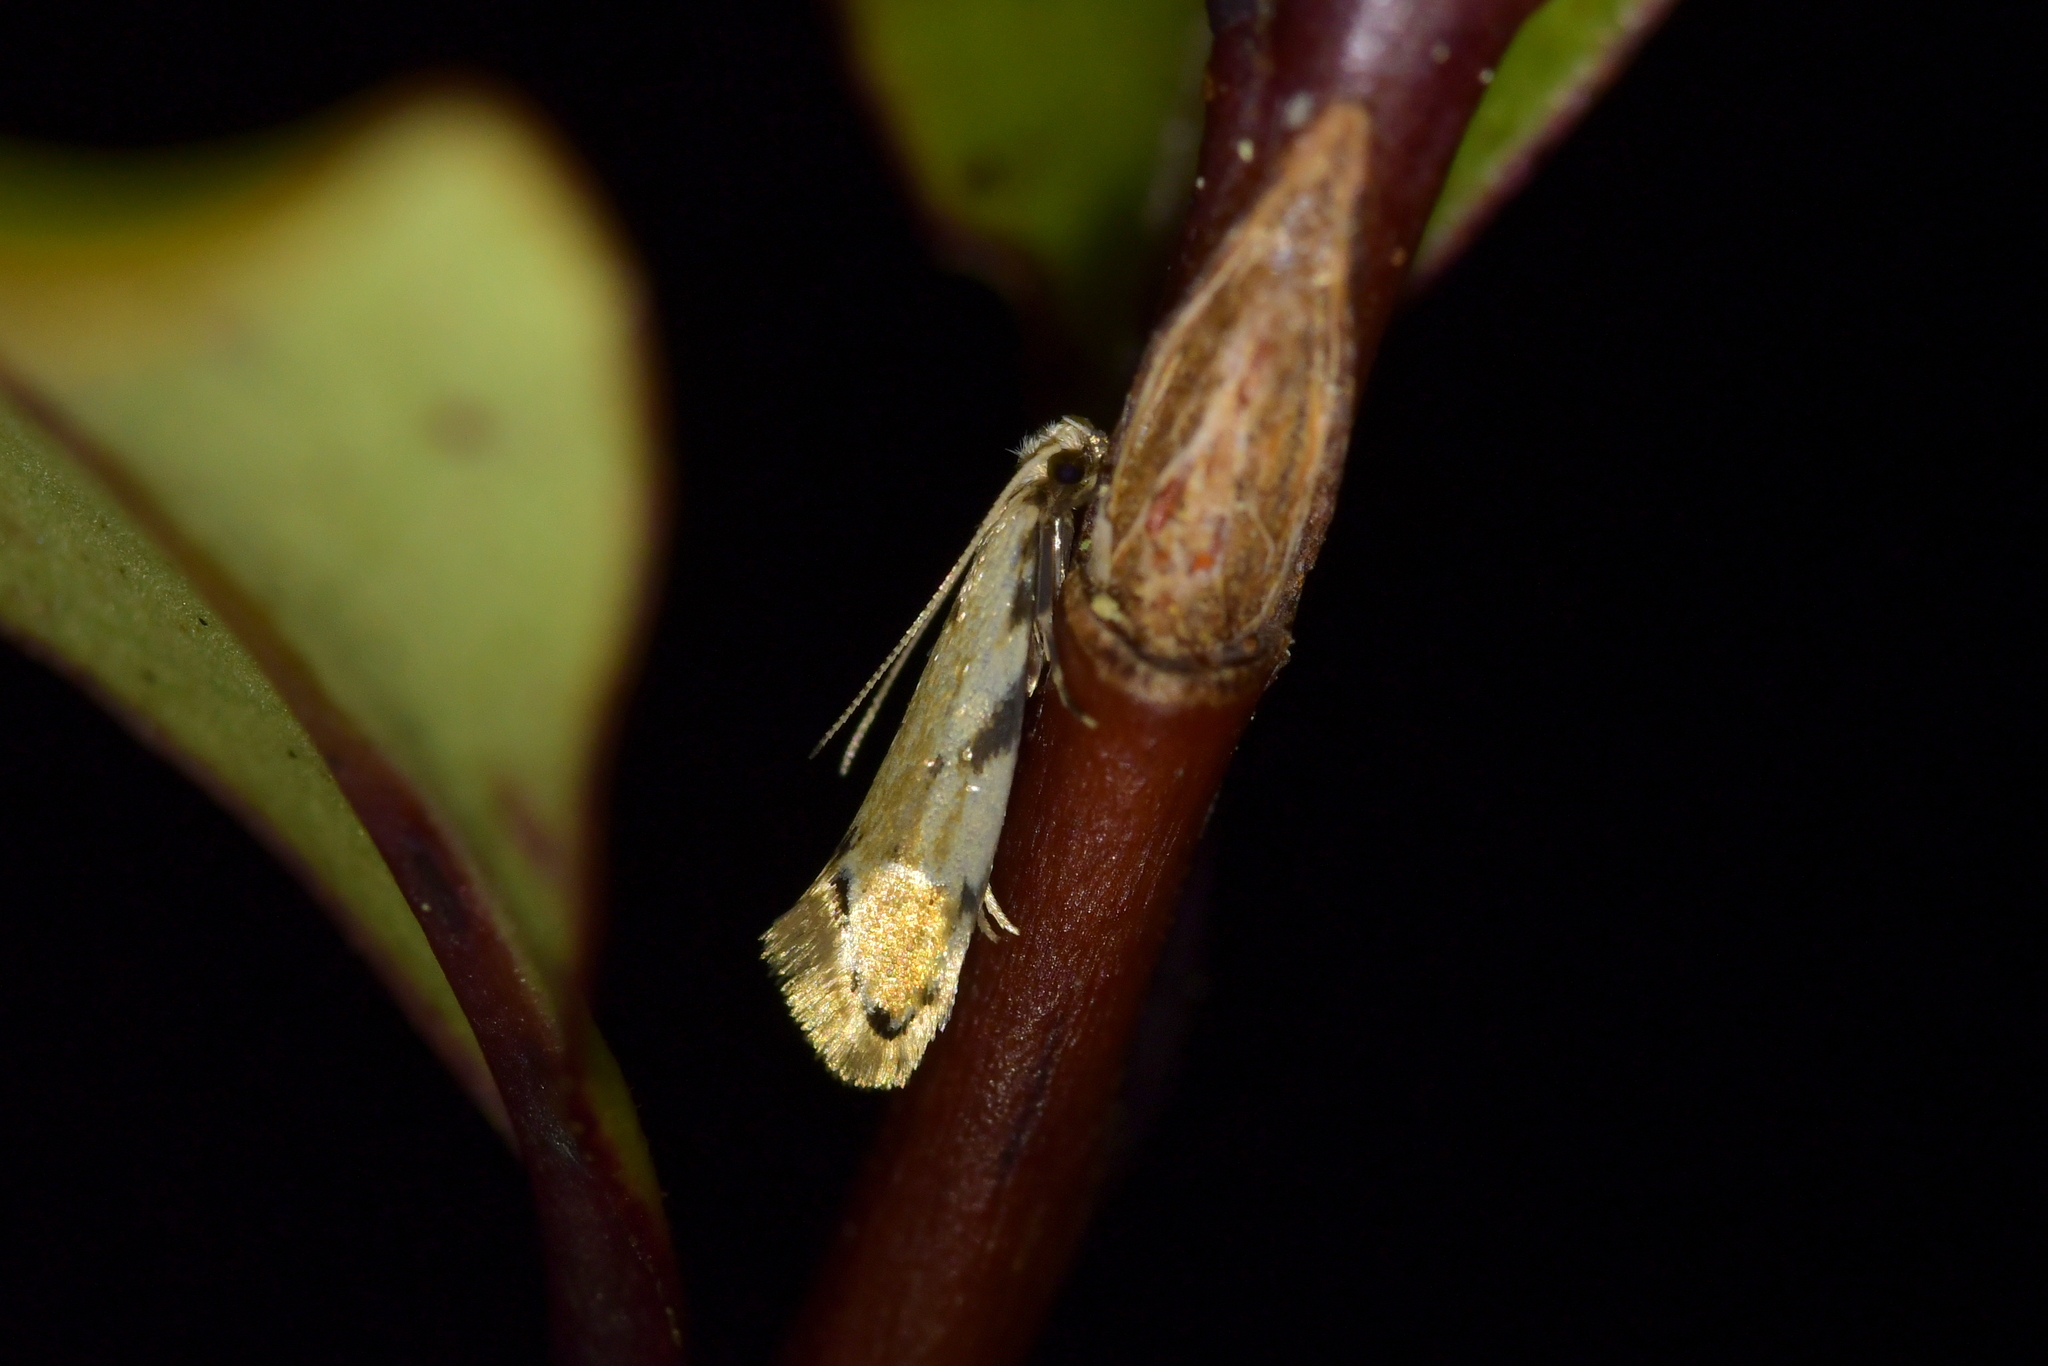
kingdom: Animalia
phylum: Arthropoda
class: Insecta
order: Lepidoptera
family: Dryadaulidae
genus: Dryadaula
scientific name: Dryadaula myrrhina
